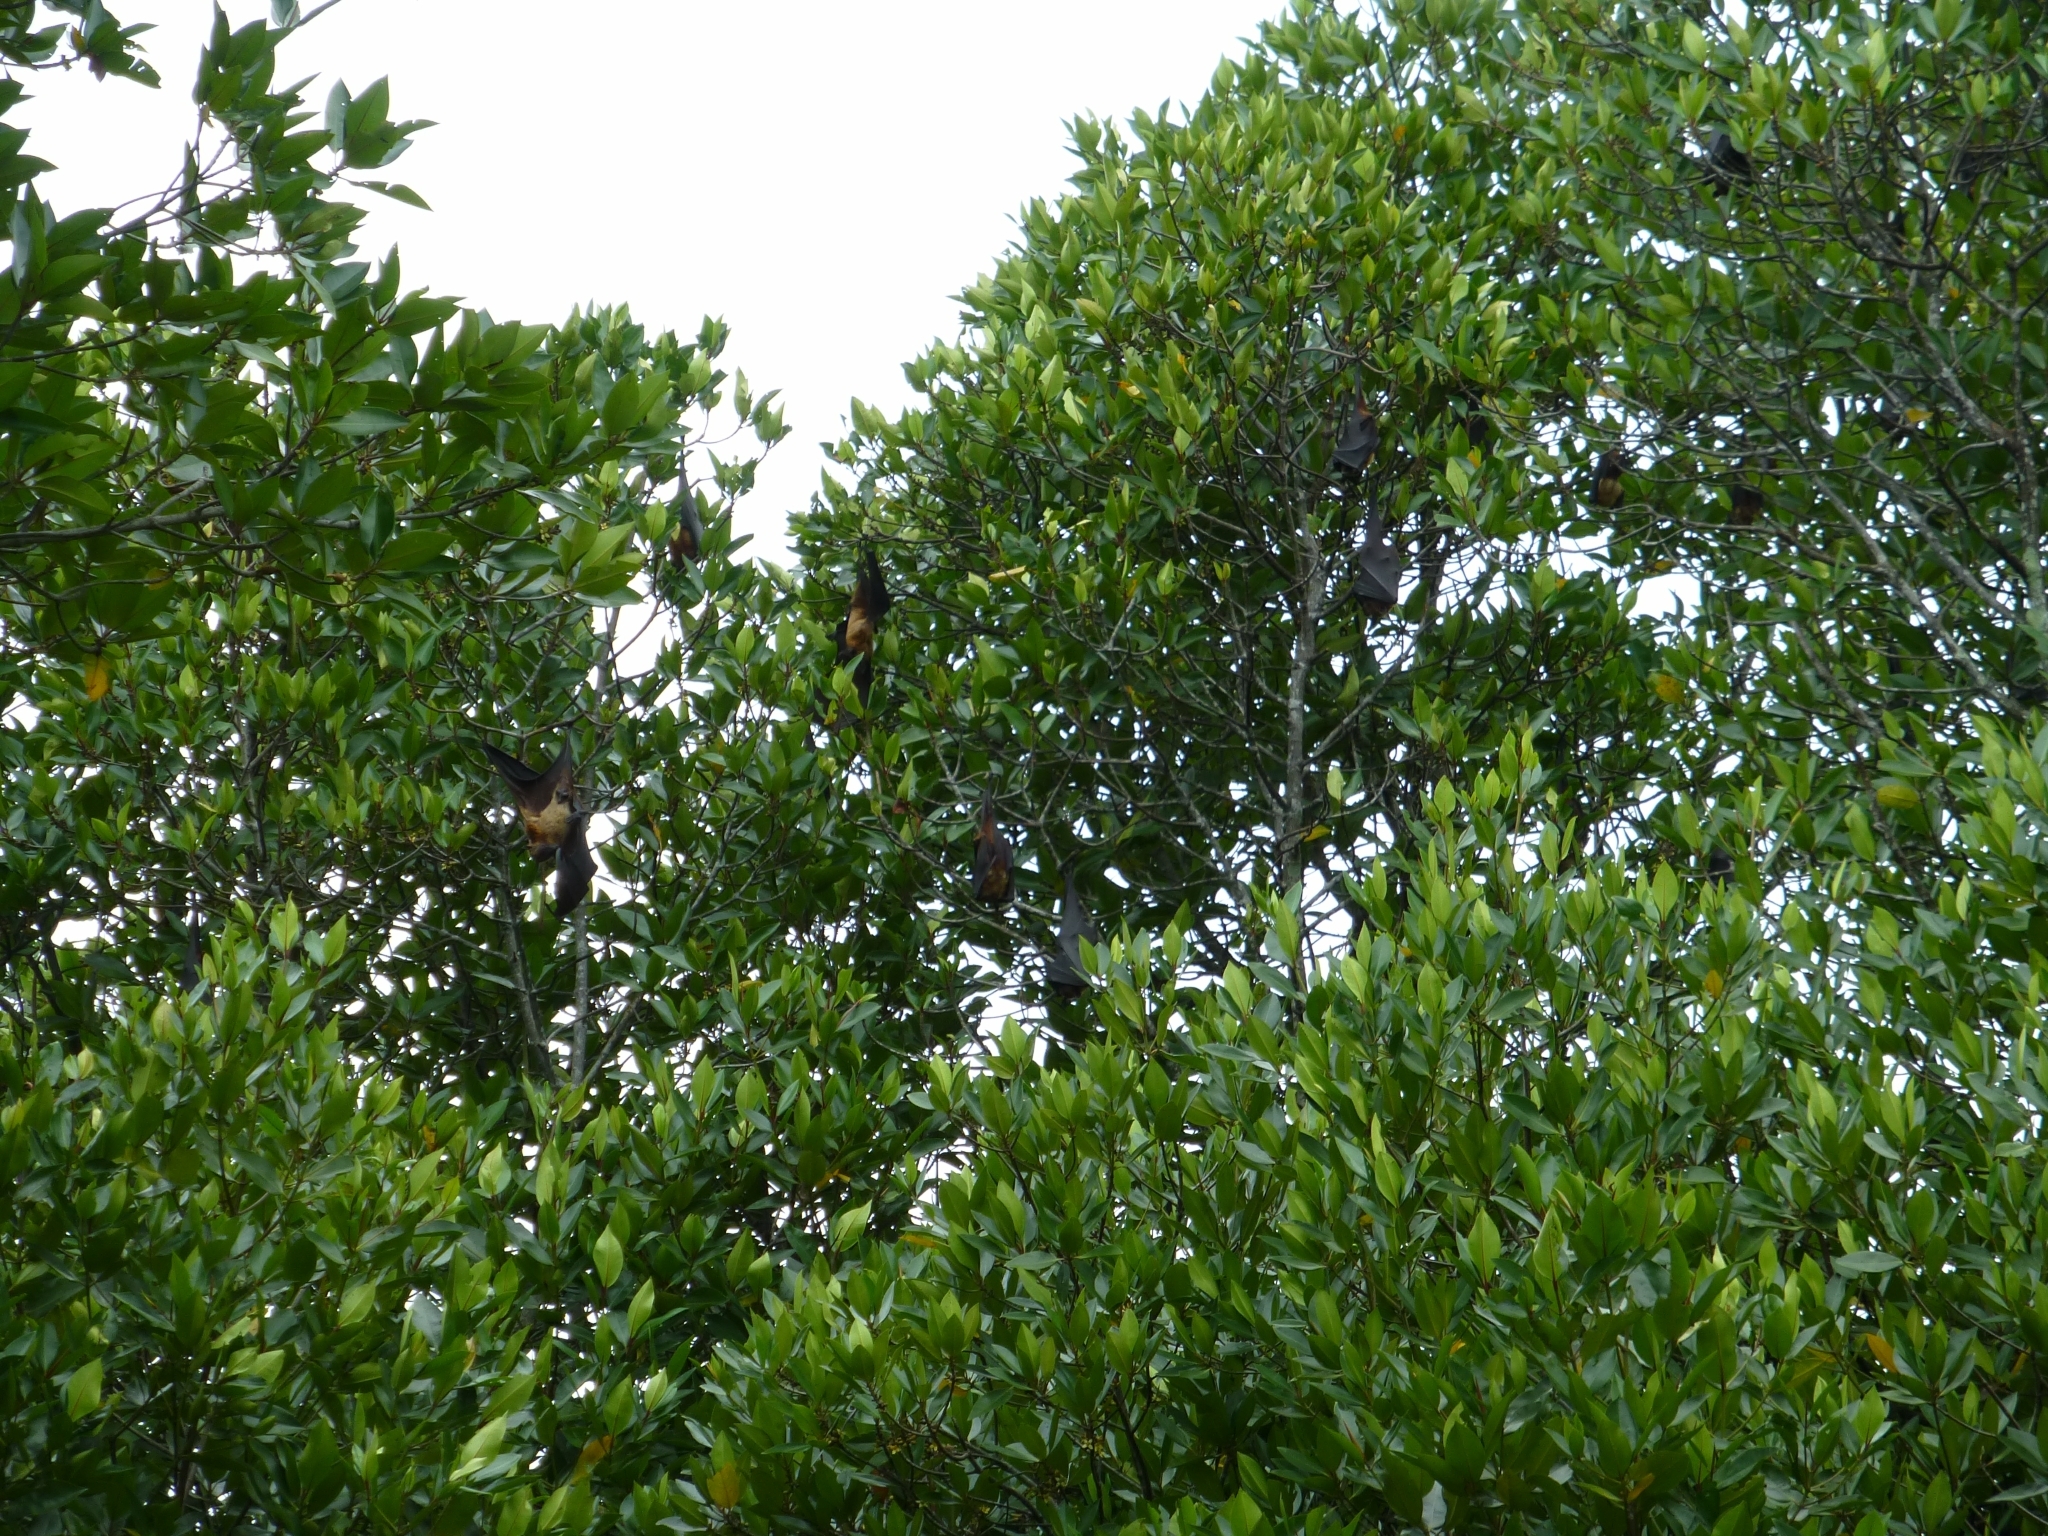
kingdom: Animalia
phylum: Chordata
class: Mammalia
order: Chiroptera
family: Pteropodidae
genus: Pteropus
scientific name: Pteropus vampyrus
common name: Large flying fox
